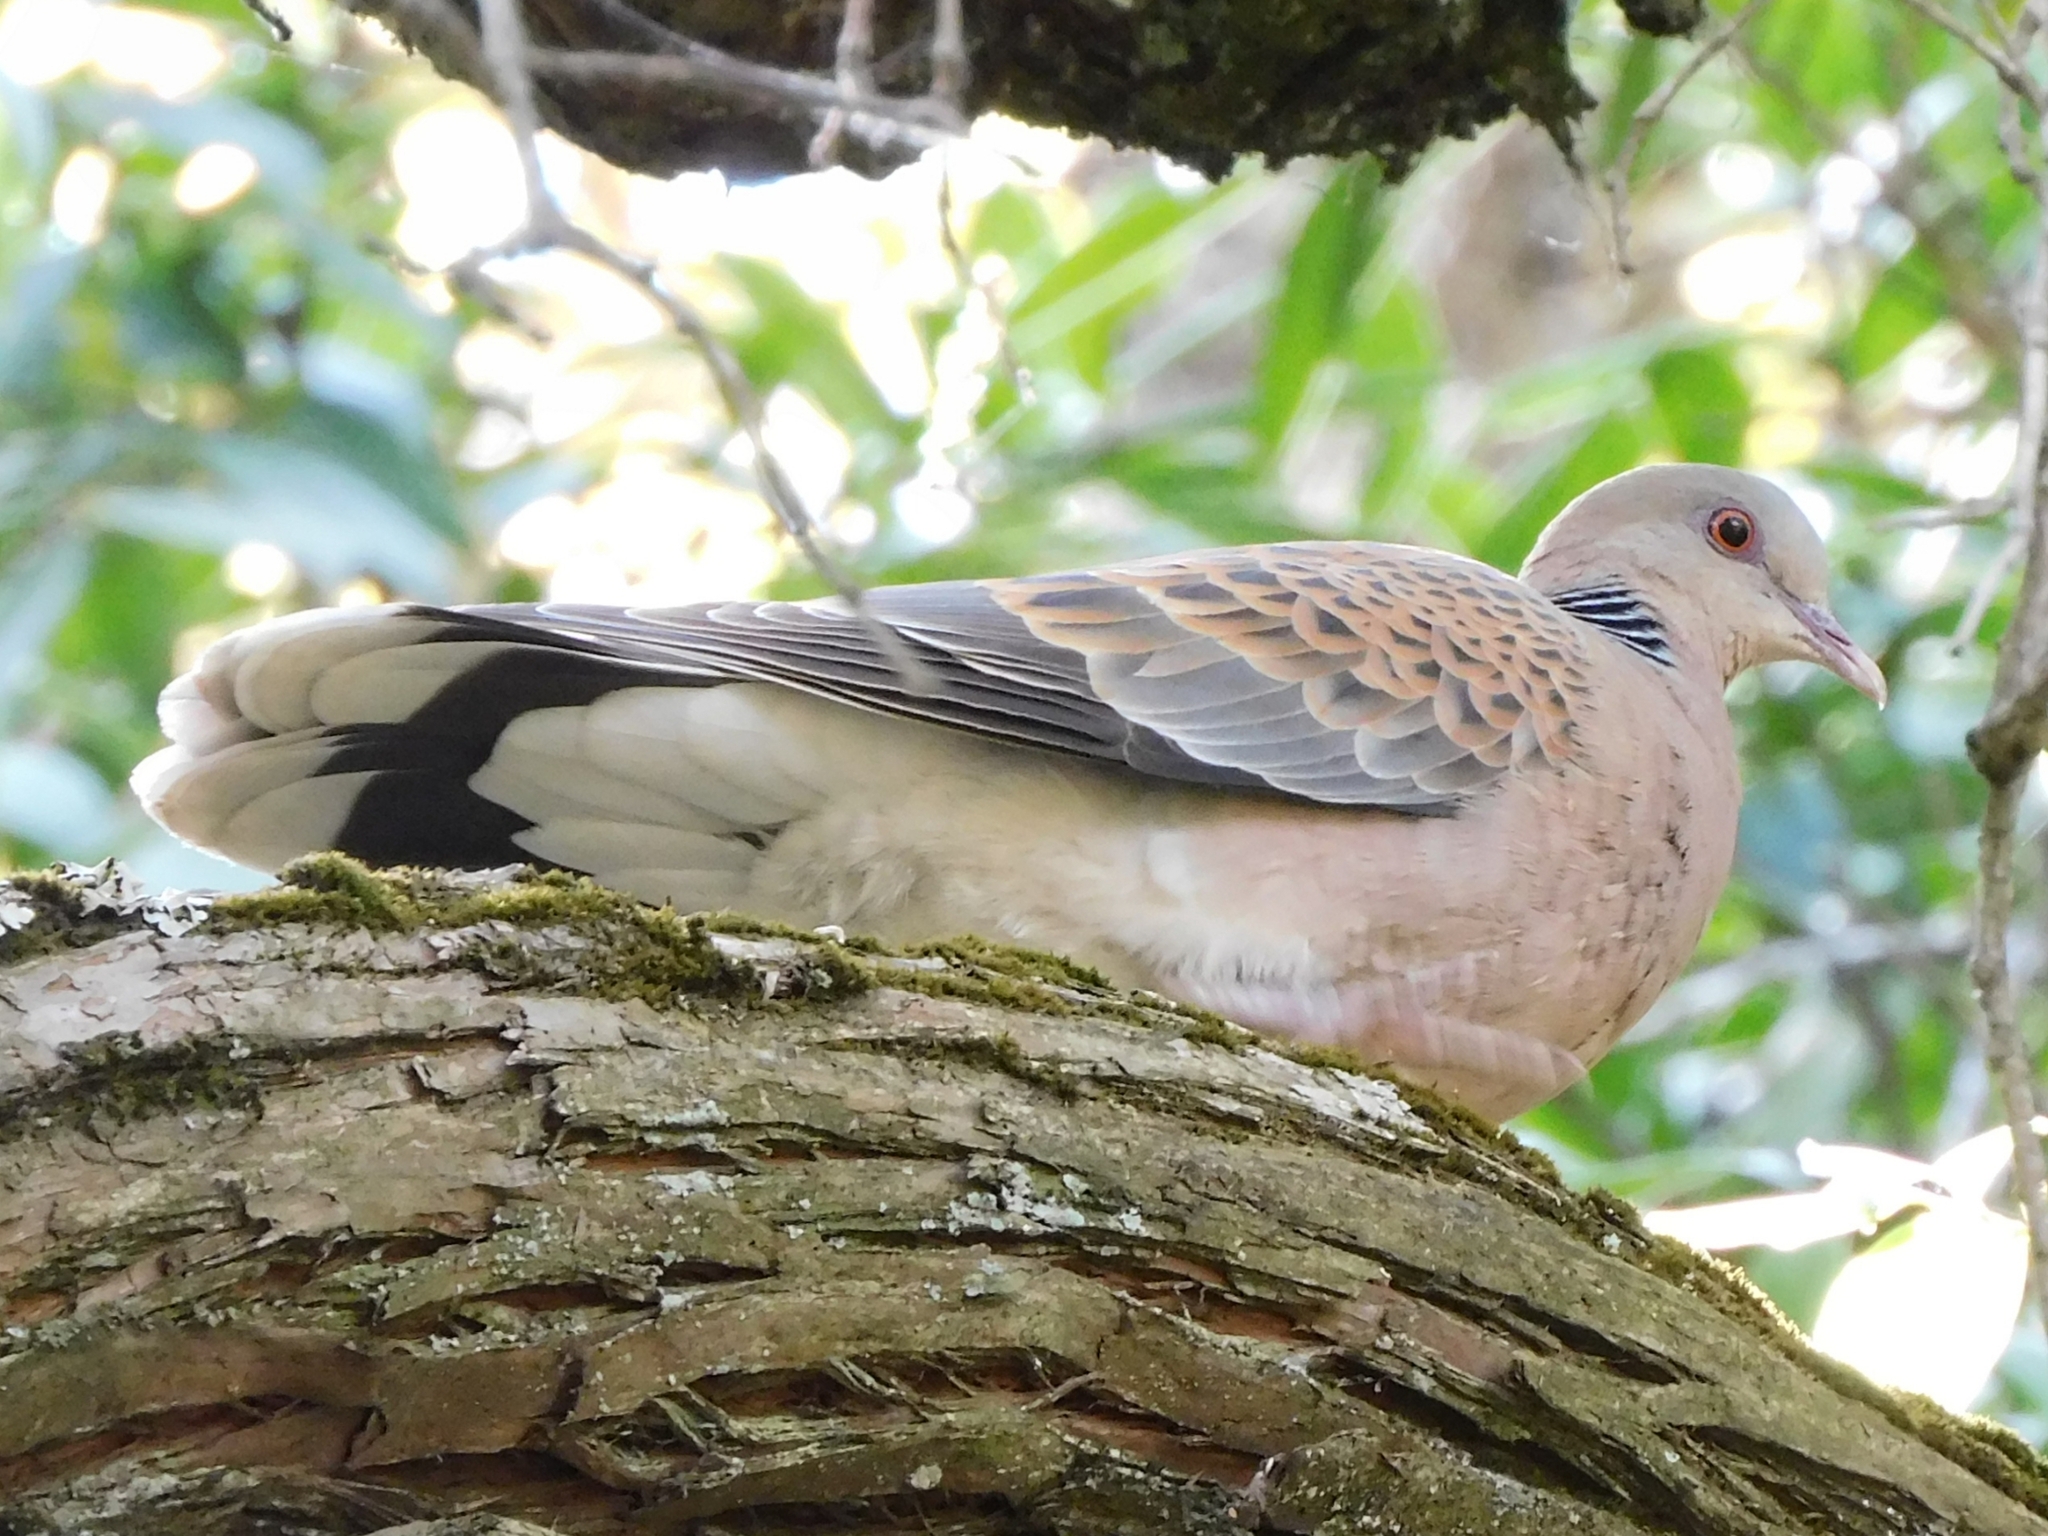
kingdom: Animalia
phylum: Chordata
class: Aves
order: Columbiformes
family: Columbidae
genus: Streptopelia
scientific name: Streptopelia orientalis
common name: Oriental turtle dove
